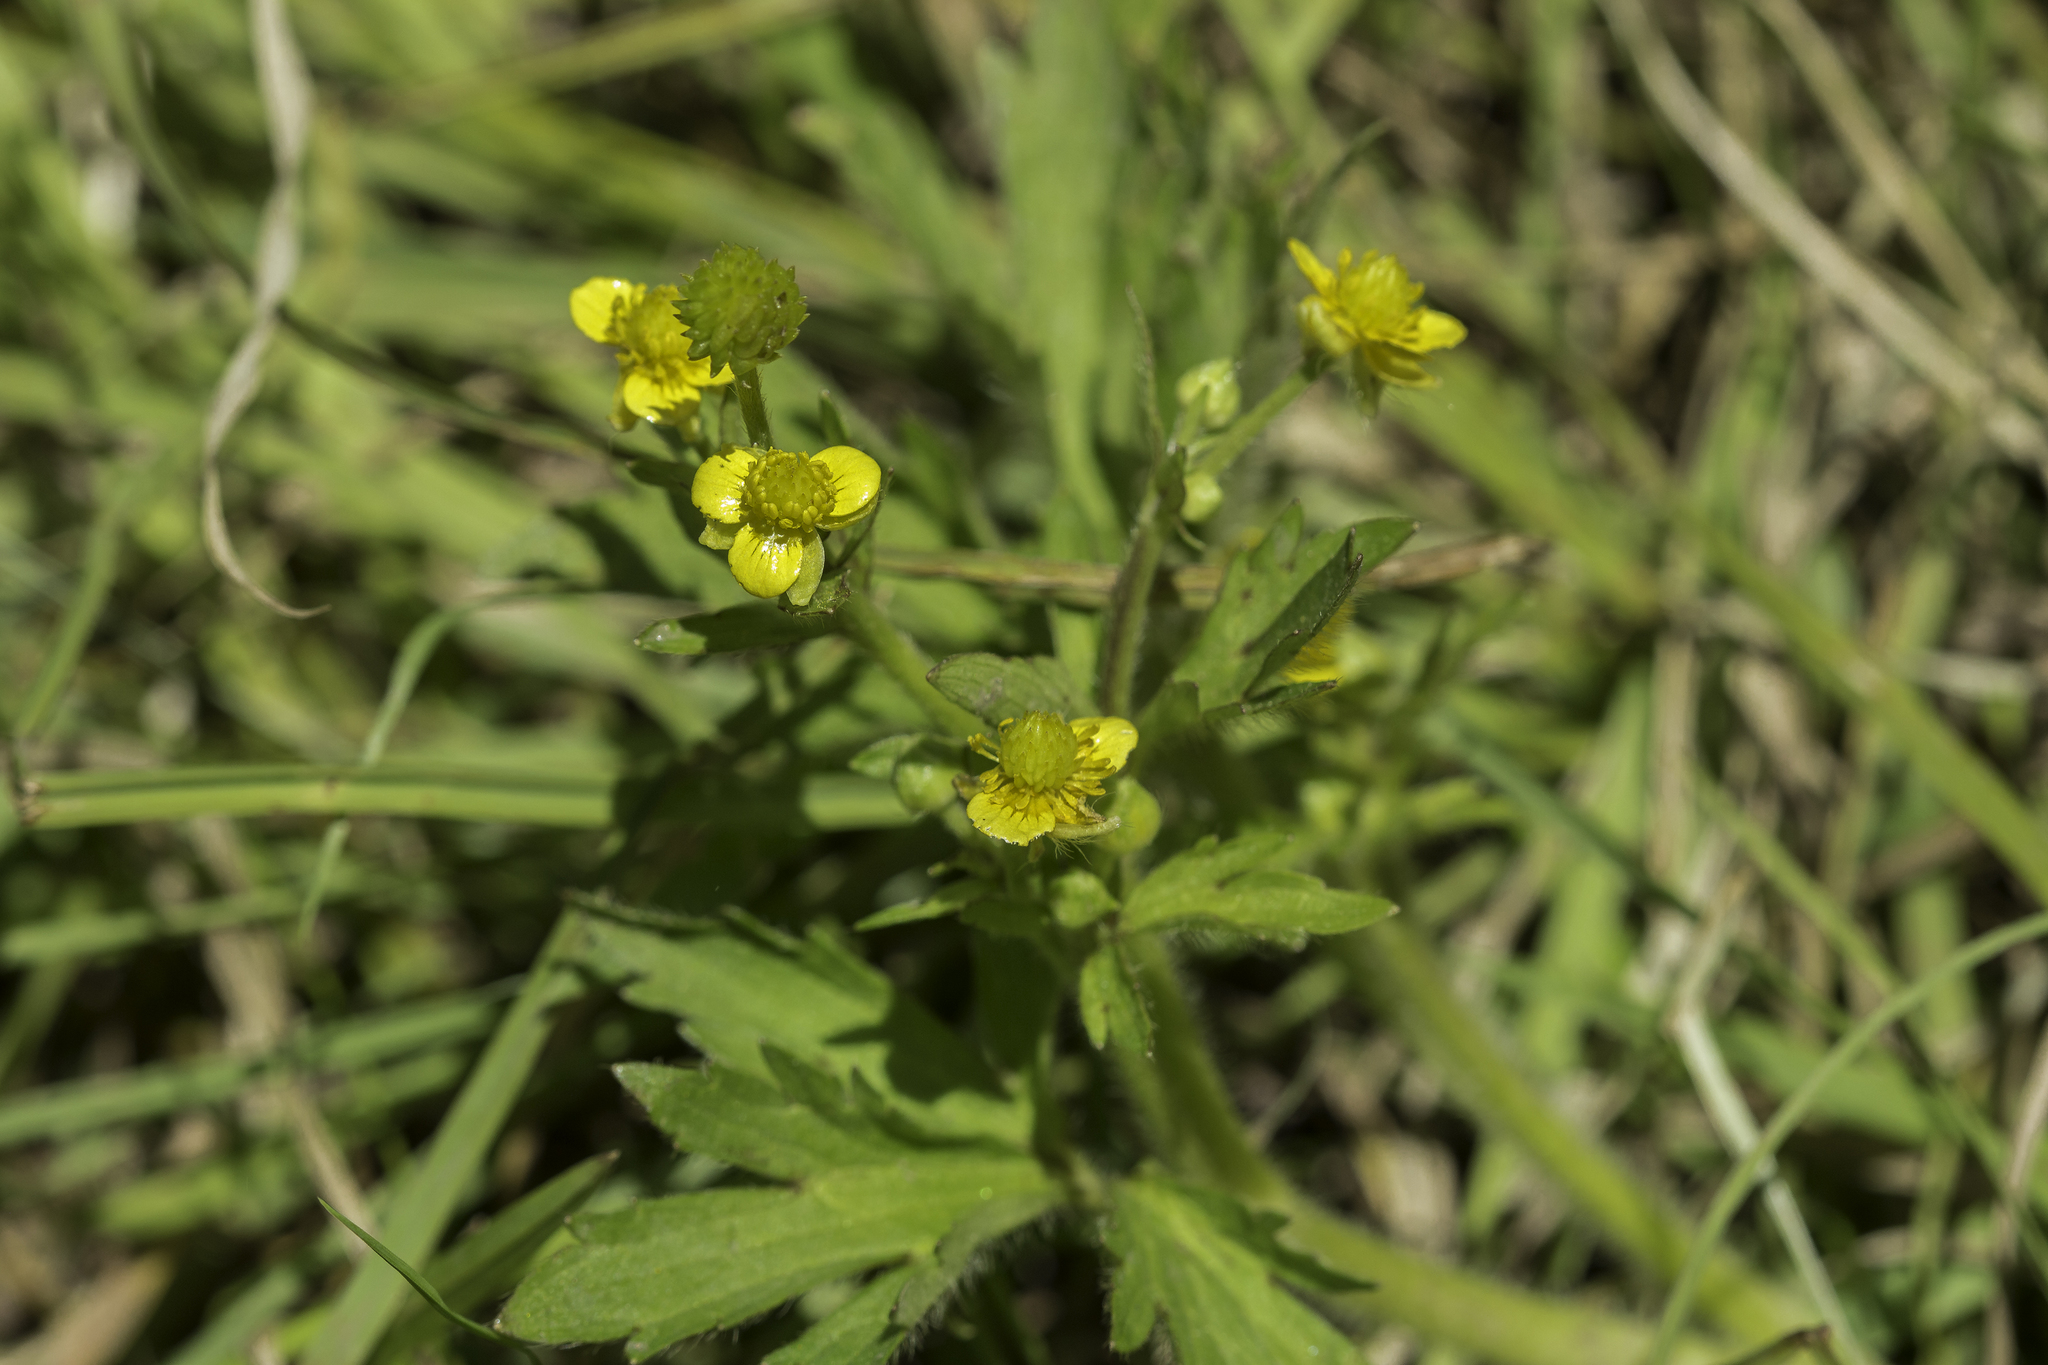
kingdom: Plantae
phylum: Tracheophyta
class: Magnoliopsida
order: Ranunculales
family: Ranunculaceae
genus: Ranunculus
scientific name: Ranunculus macounii
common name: Macoun's buttercup
